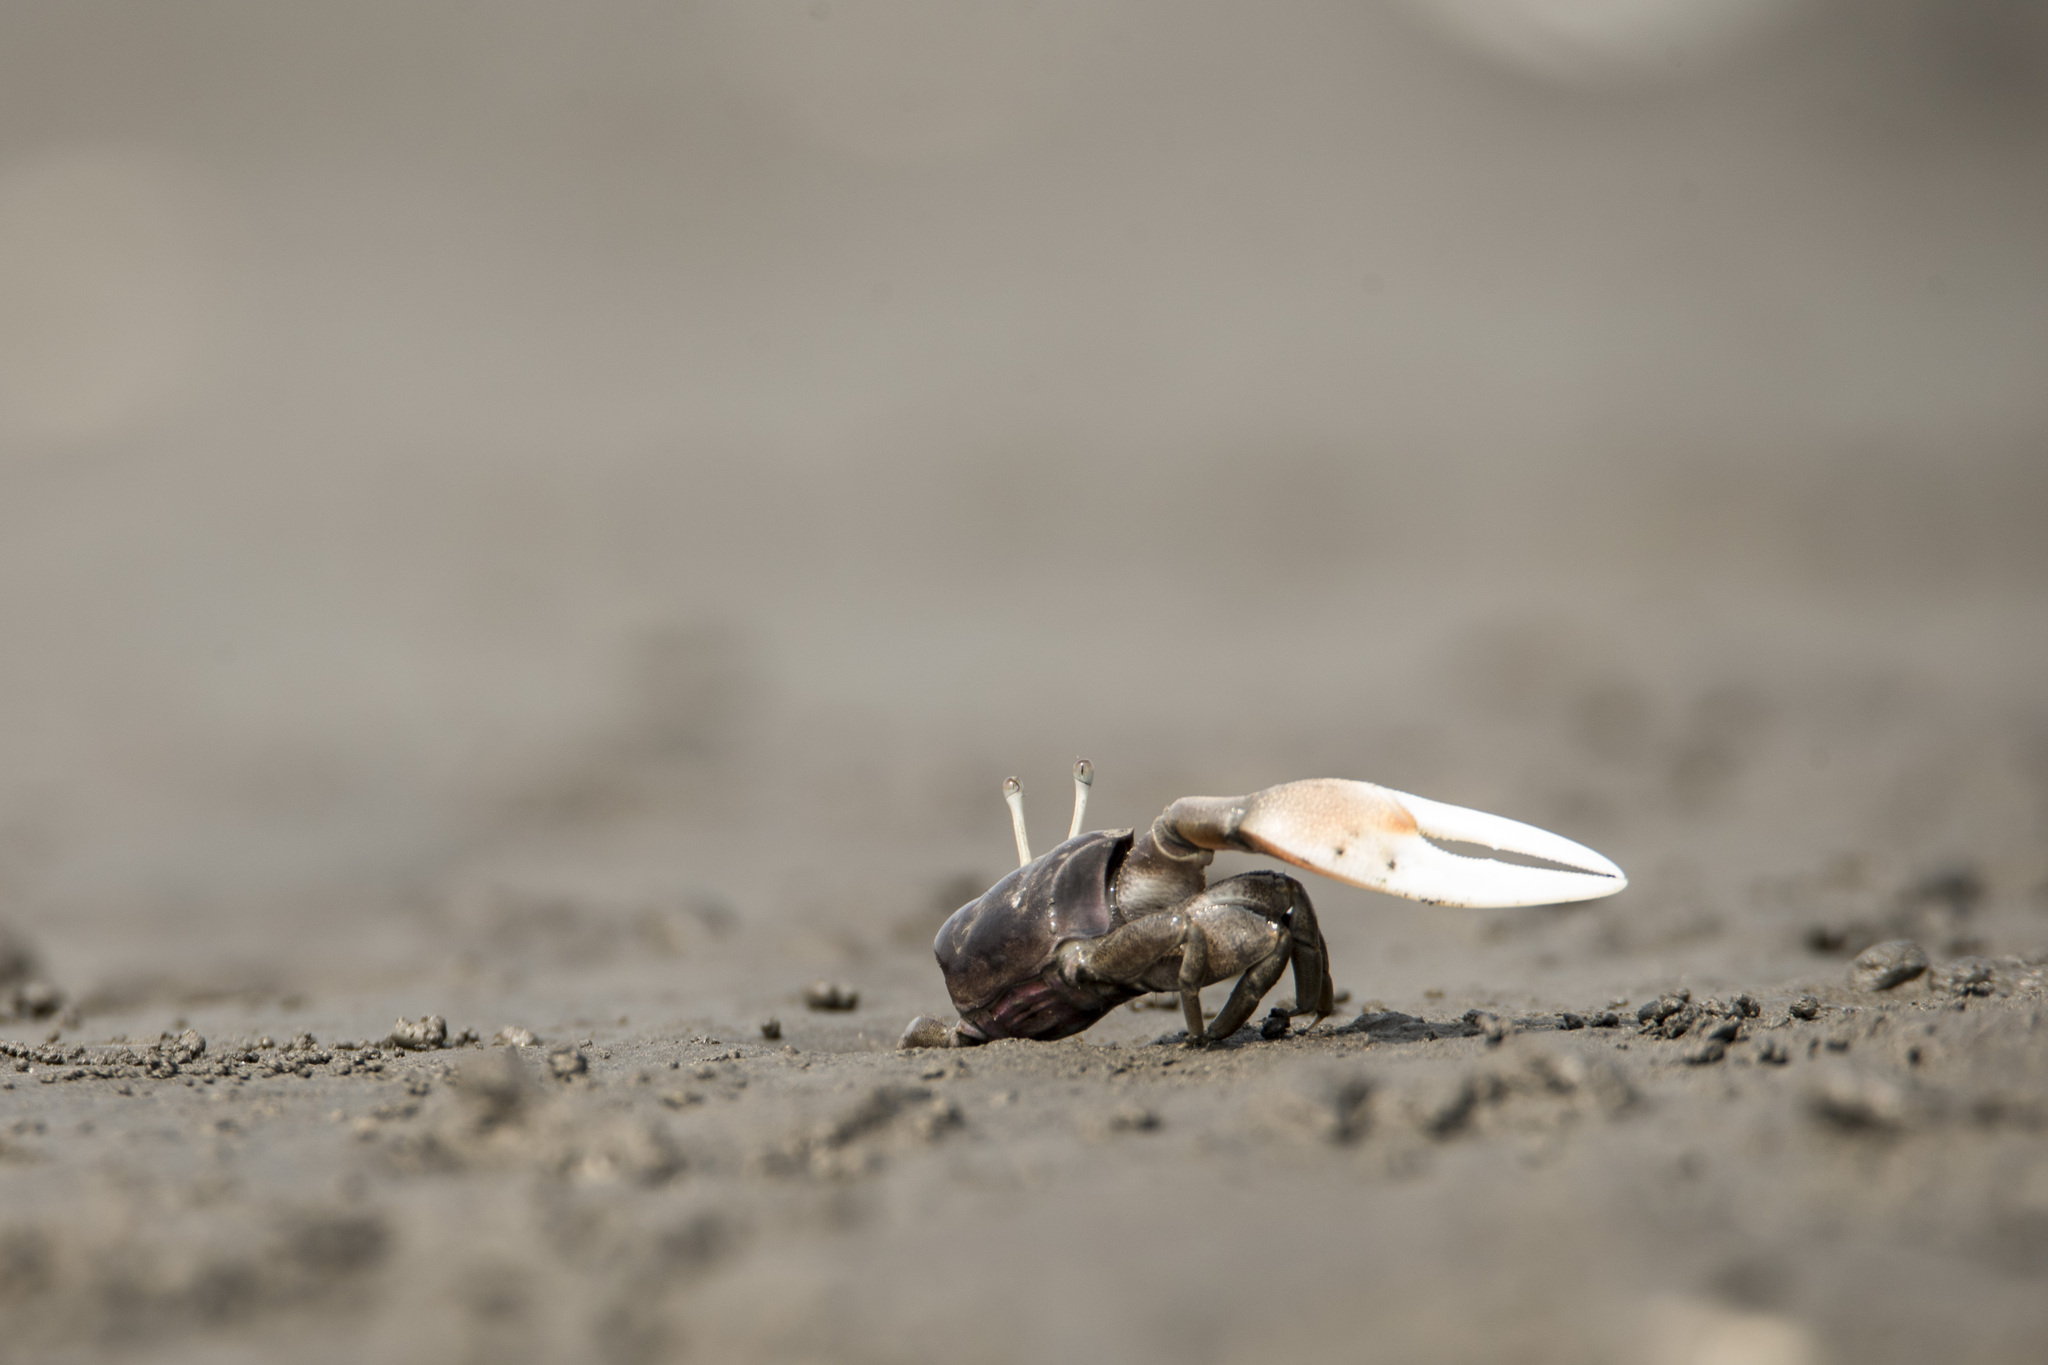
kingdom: Animalia
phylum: Arthropoda
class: Malacostraca
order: Decapoda
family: Ocypodidae
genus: Xeruca
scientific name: Xeruca formosensis
